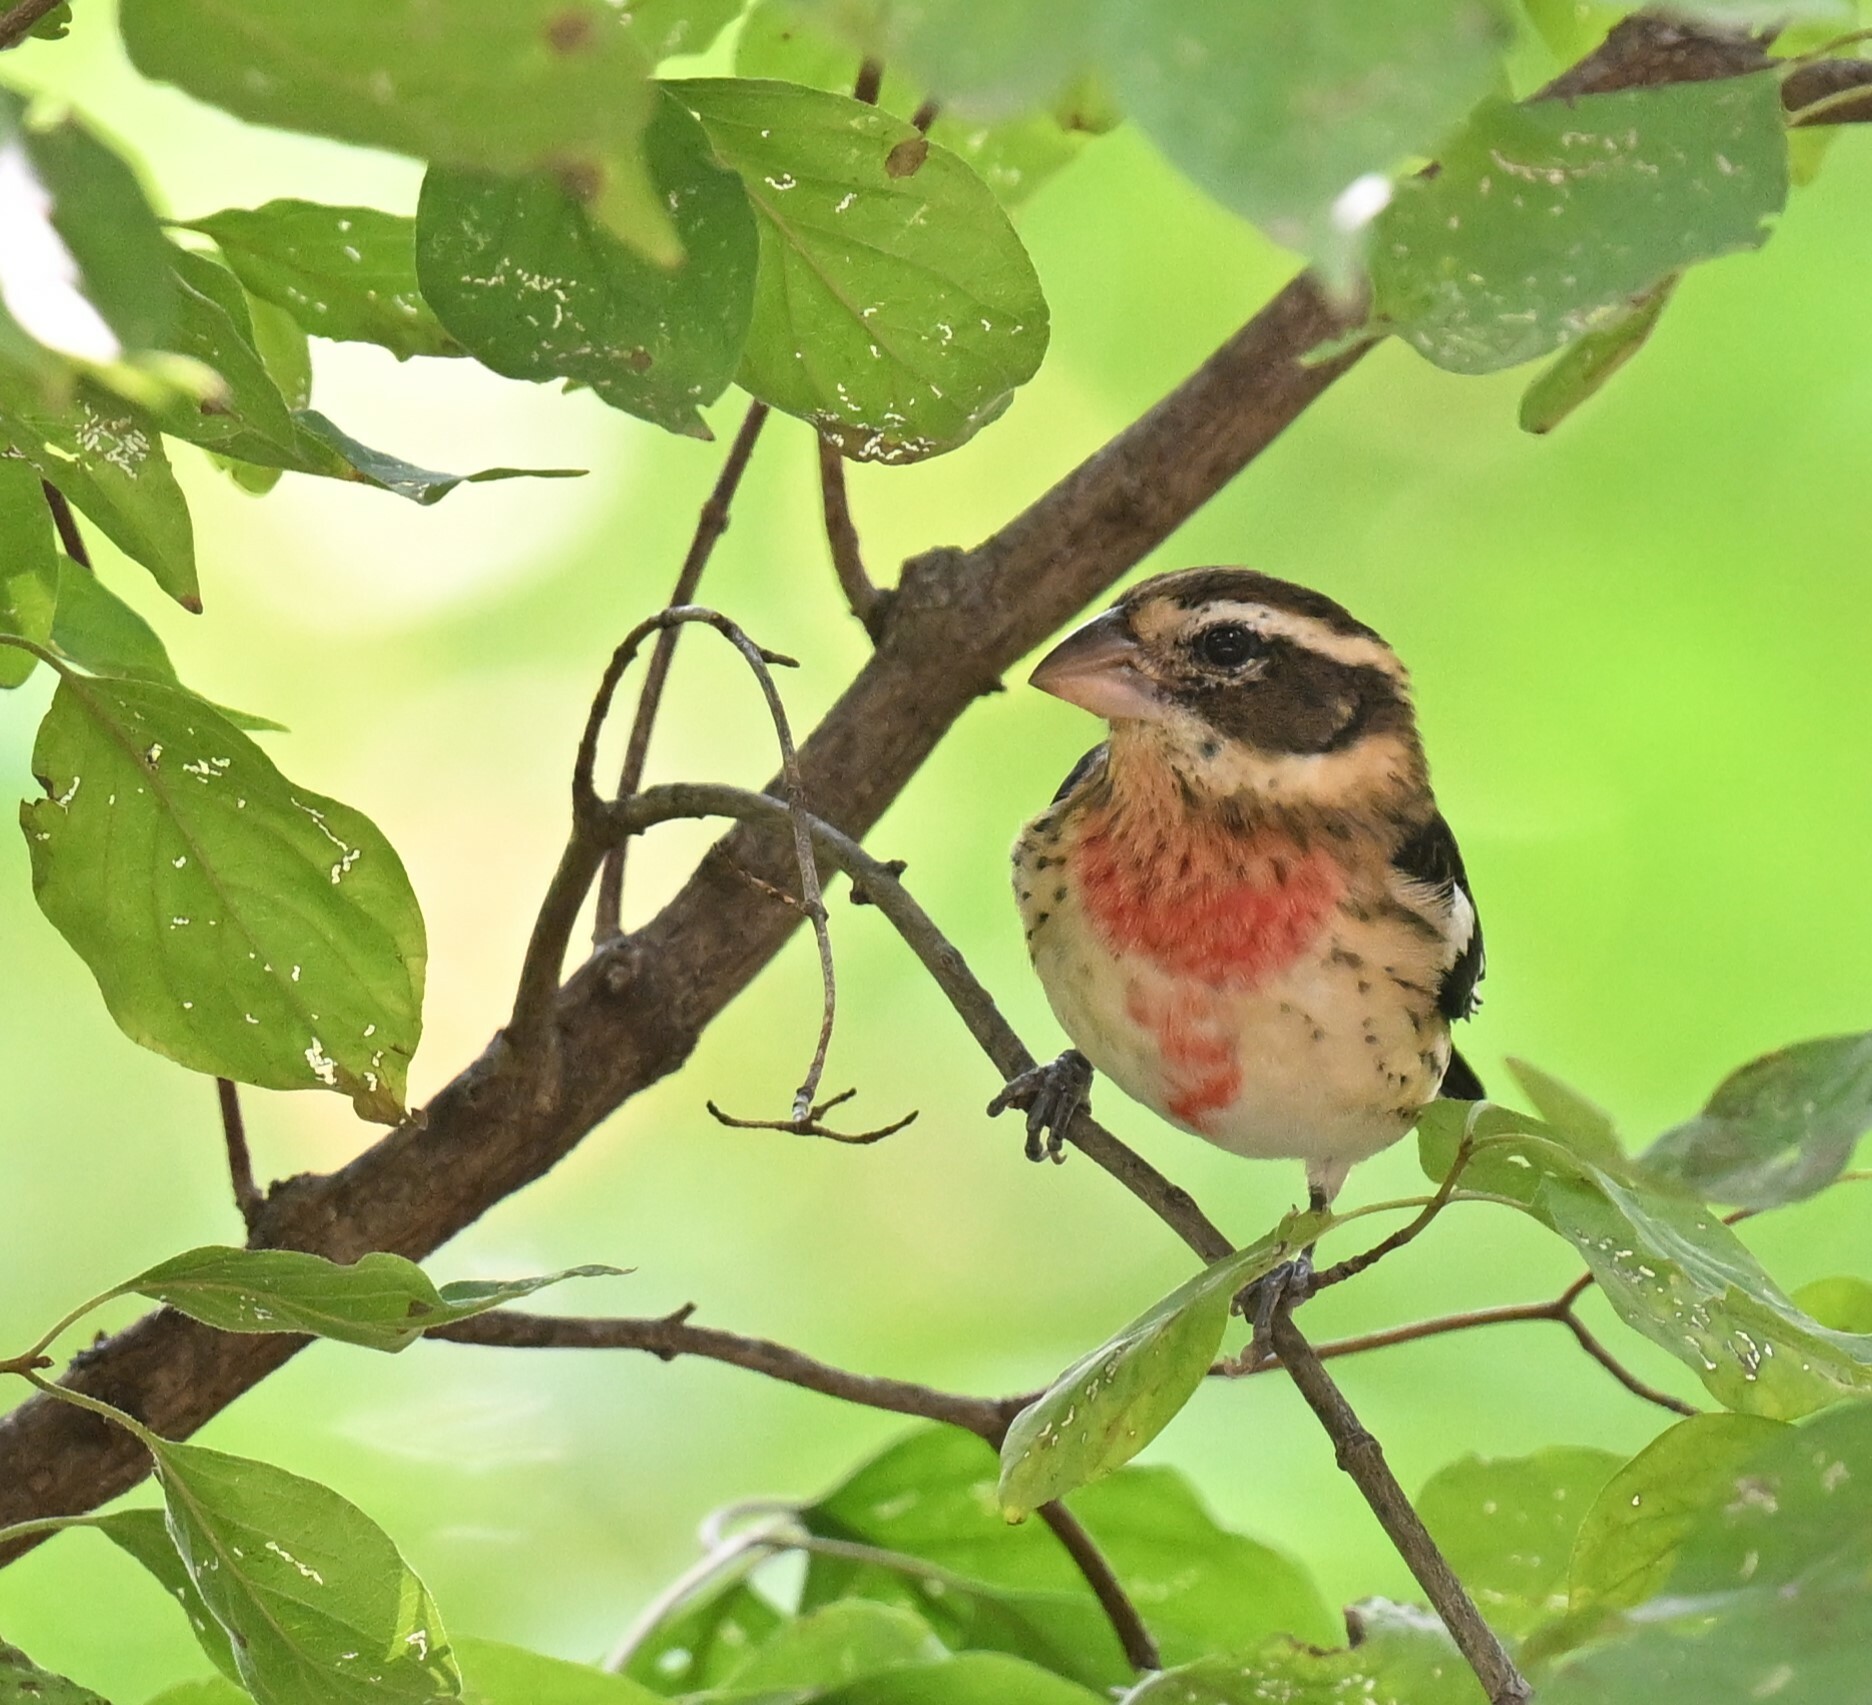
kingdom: Animalia
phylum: Chordata
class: Aves
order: Passeriformes
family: Cardinalidae
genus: Pheucticus
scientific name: Pheucticus ludovicianus
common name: Rose-breasted grosbeak
